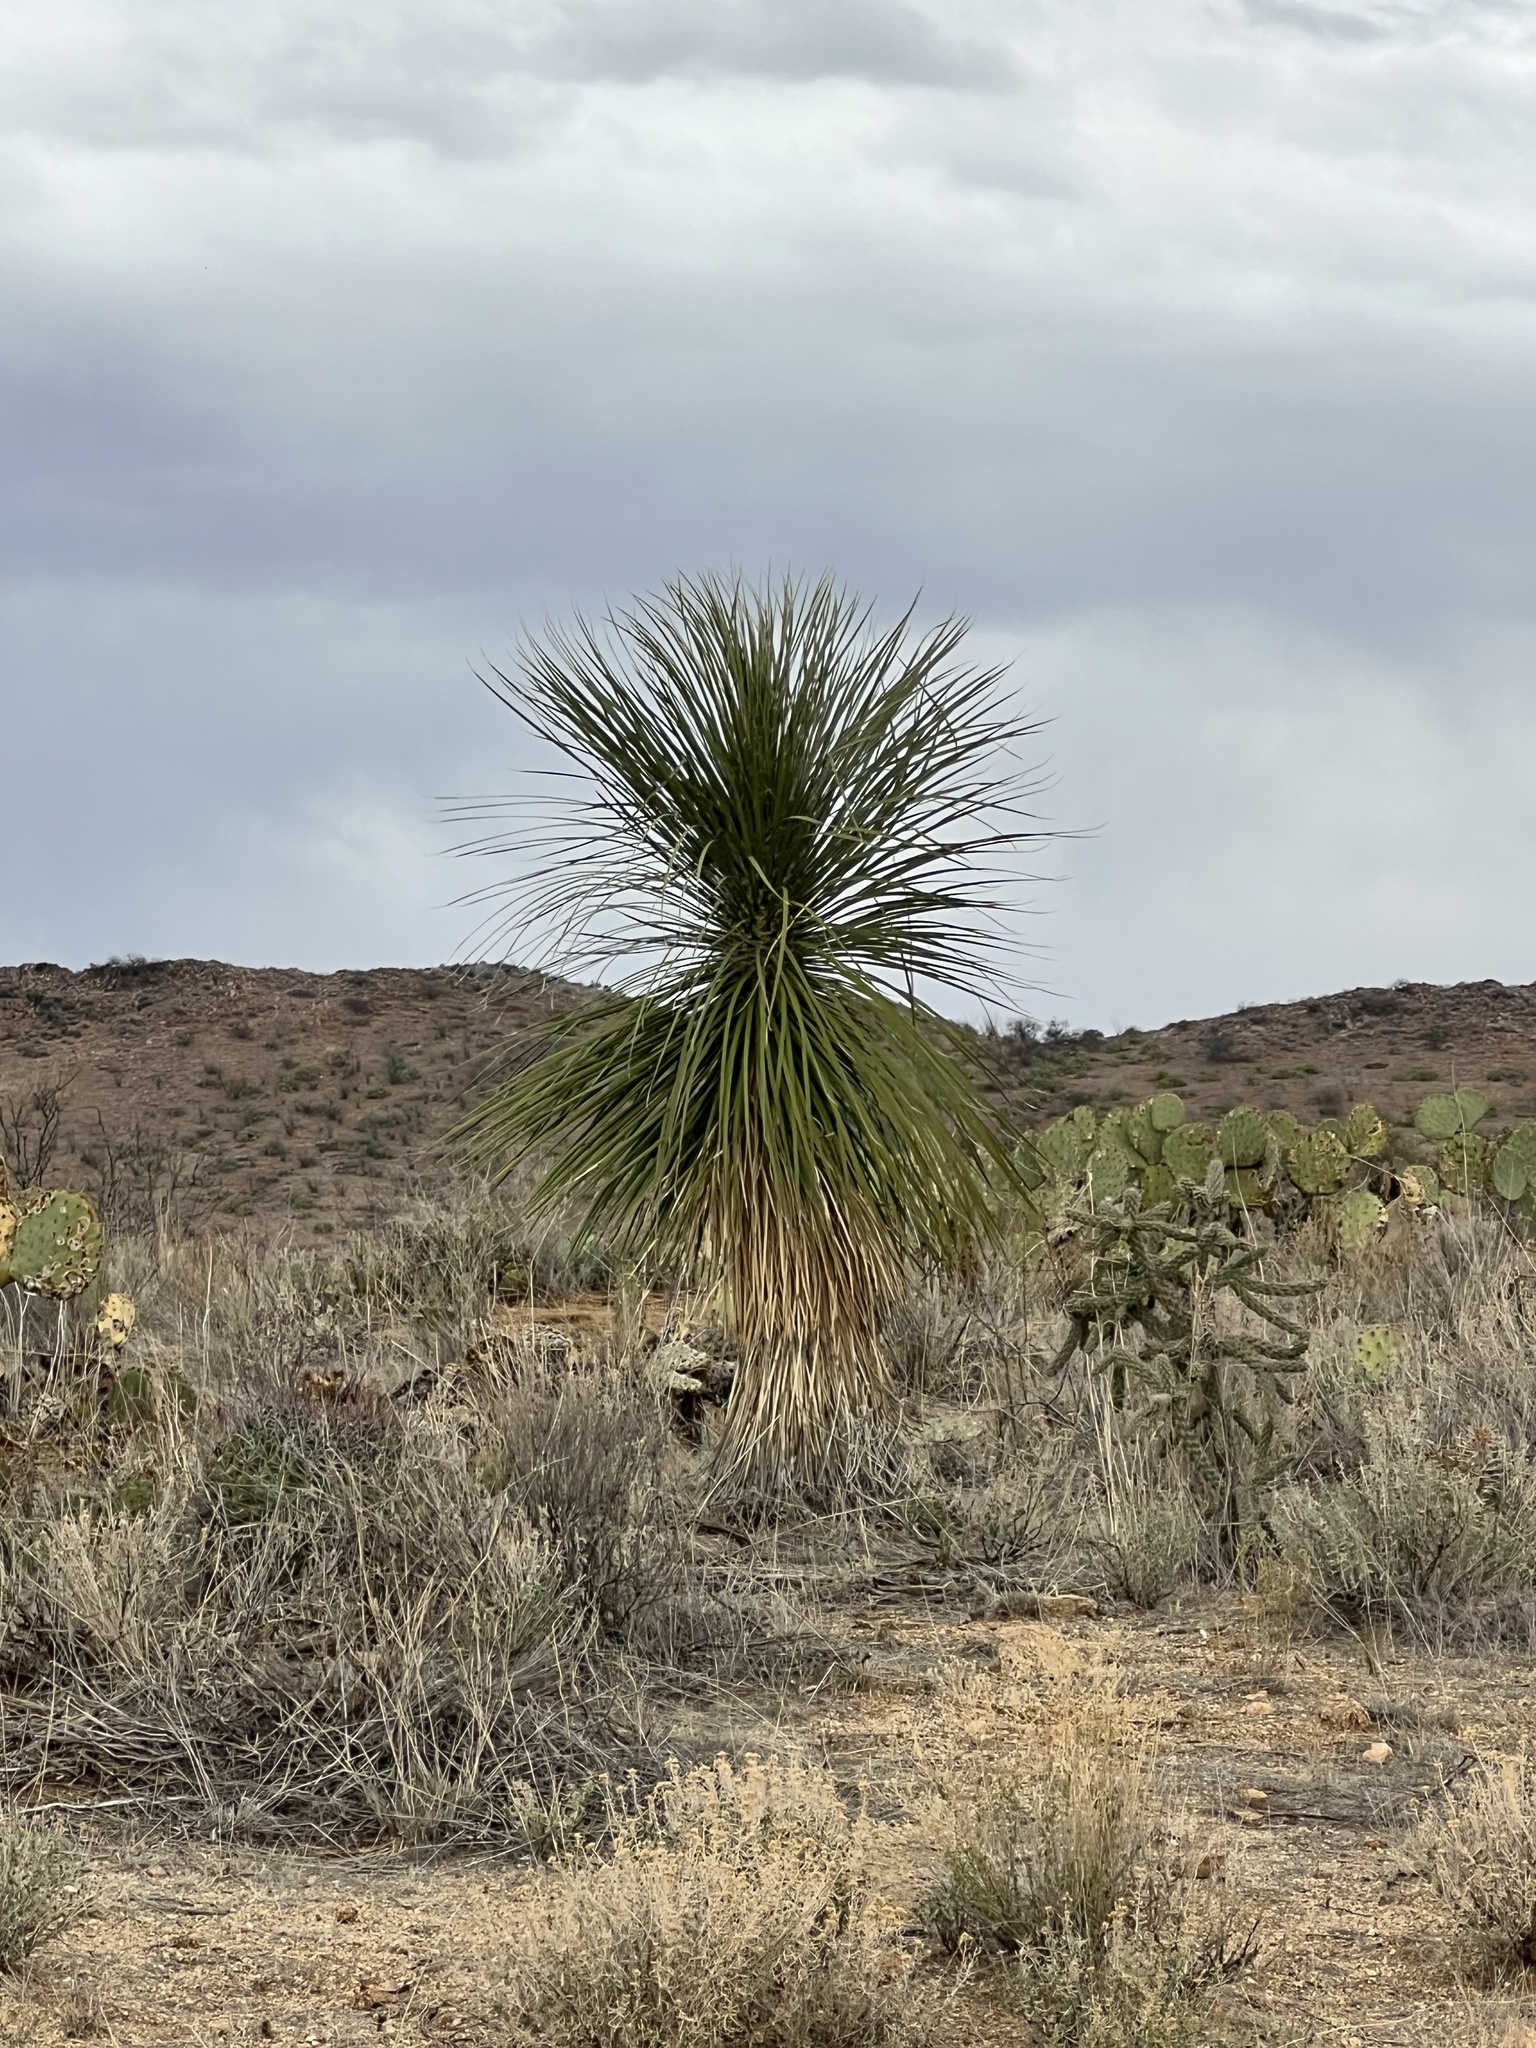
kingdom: Plantae
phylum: Tracheophyta
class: Liliopsida
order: Asparagales
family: Asparagaceae
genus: Yucca
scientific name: Yucca elata
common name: Palmella
